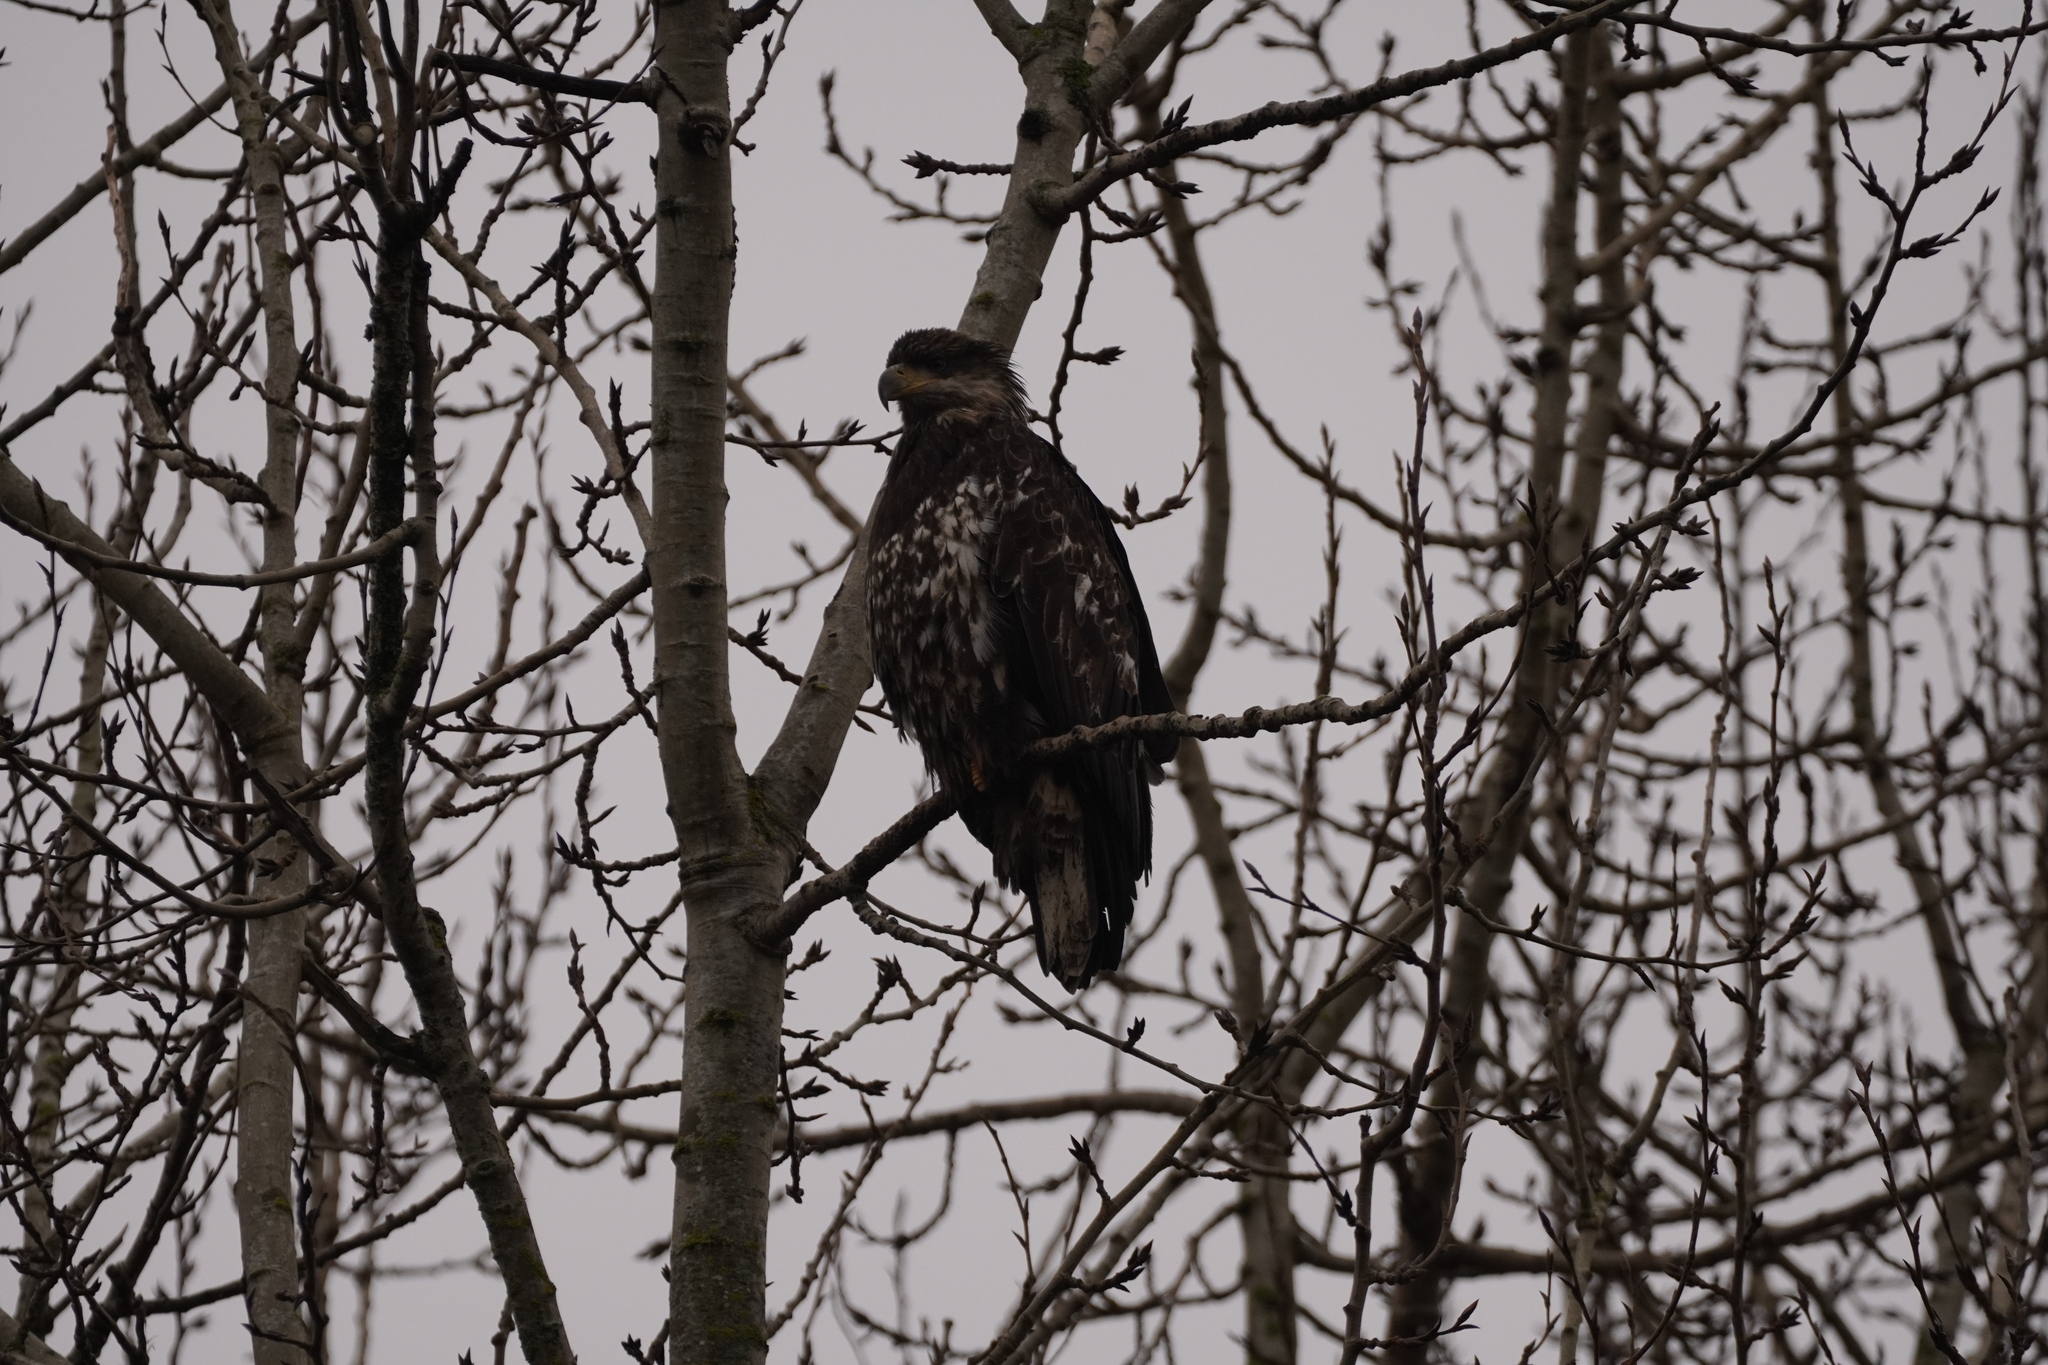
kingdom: Animalia
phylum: Chordata
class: Aves
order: Accipitriformes
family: Accipitridae
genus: Haliaeetus
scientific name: Haliaeetus leucocephalus
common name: Bald eagle
